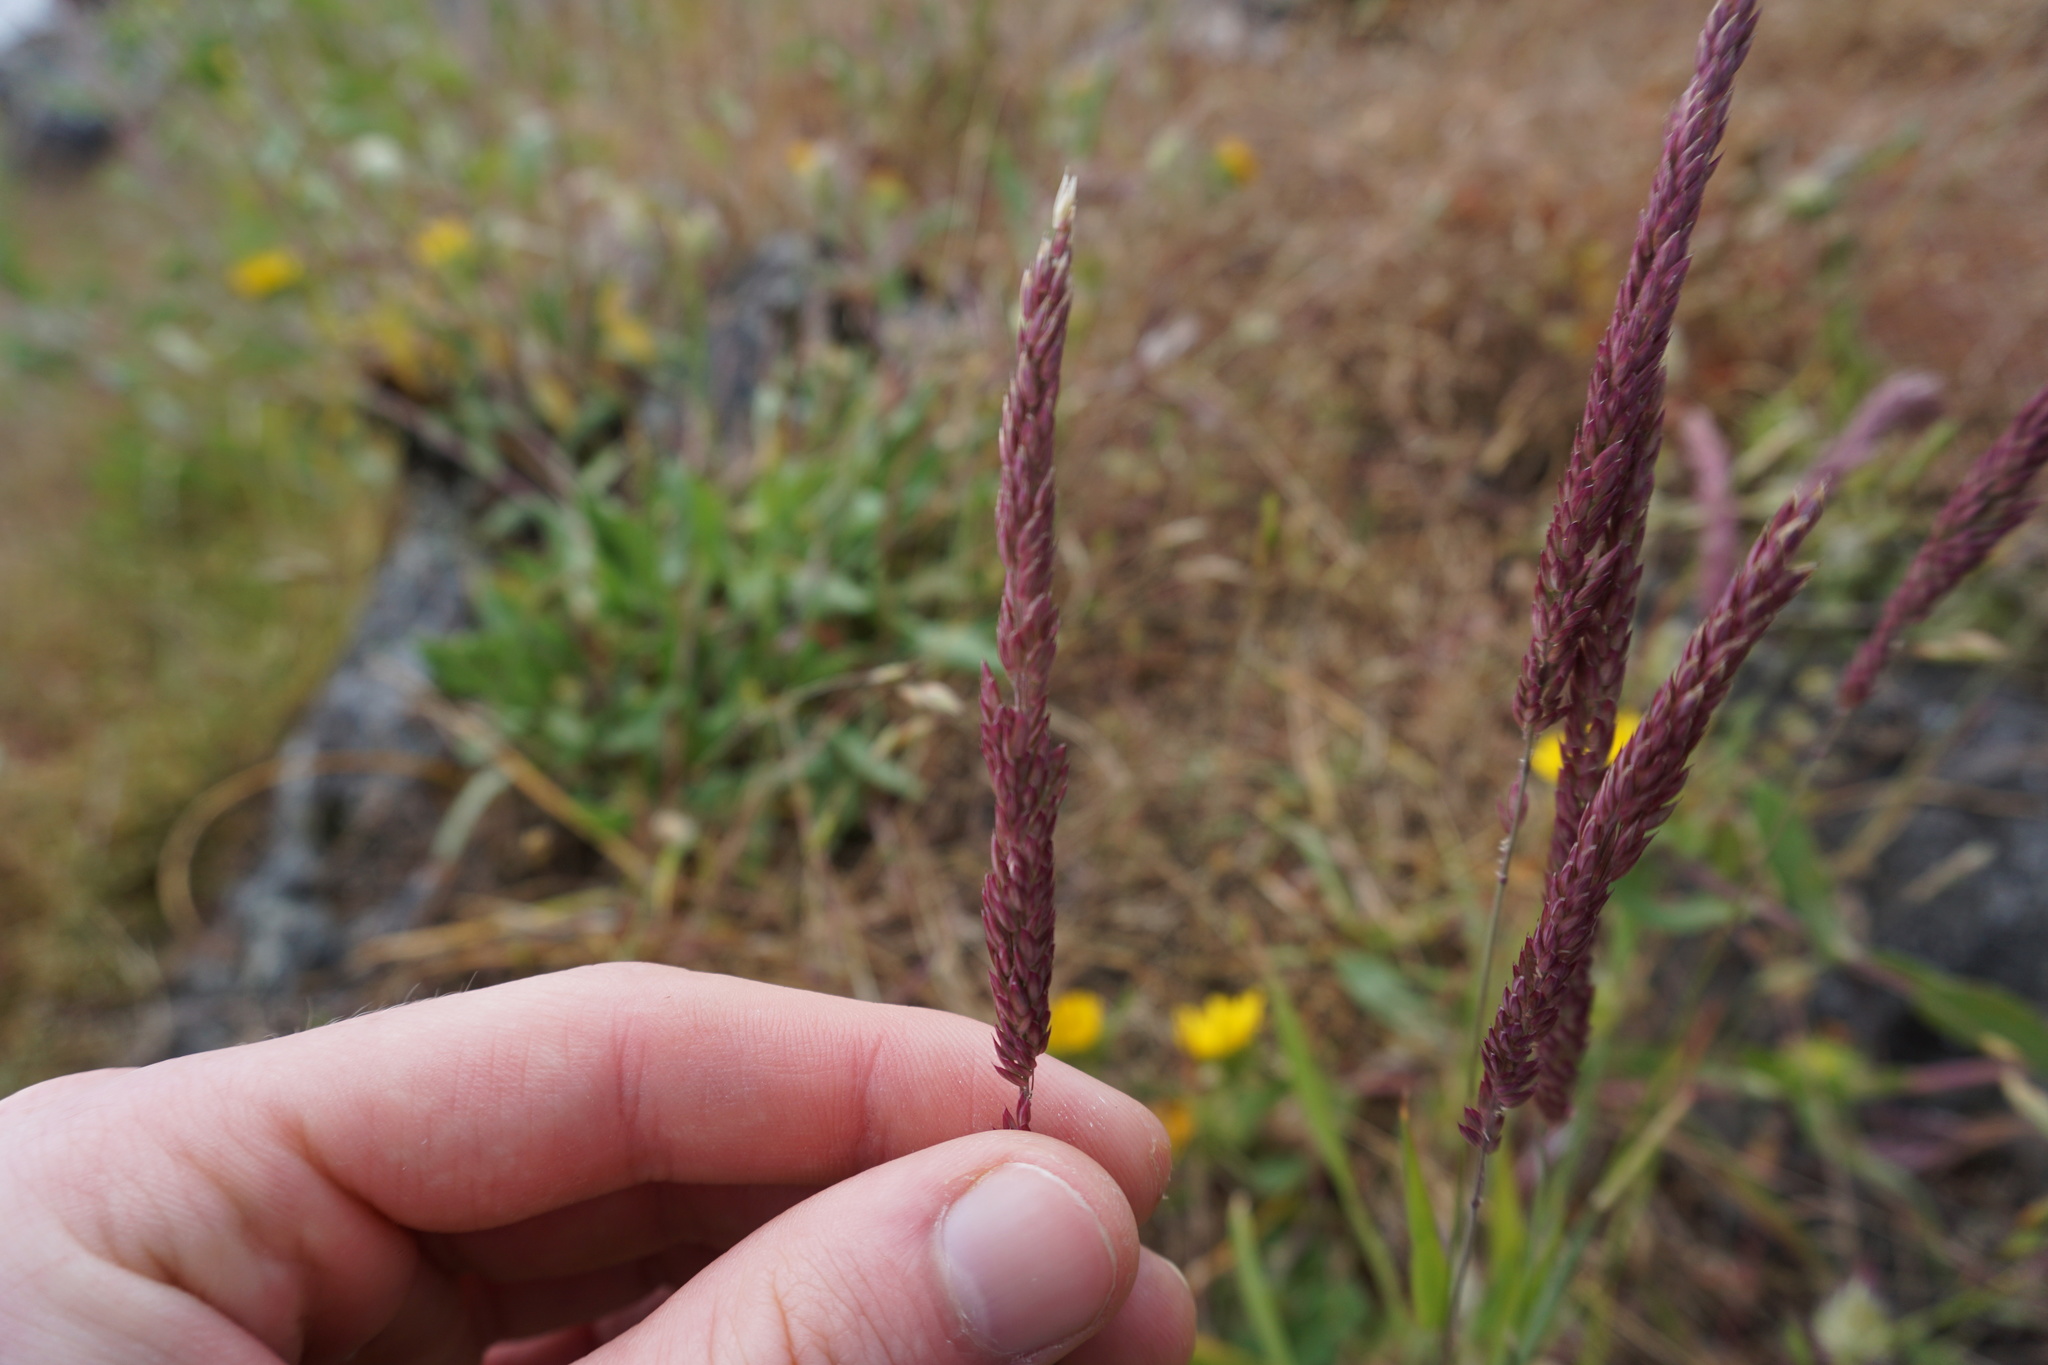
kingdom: Plantae
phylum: Tracheophyta
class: Liliopsida
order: Poales
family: Poaceae
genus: Holcus
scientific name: Holcus lanatus
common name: Yorkshire-fog
